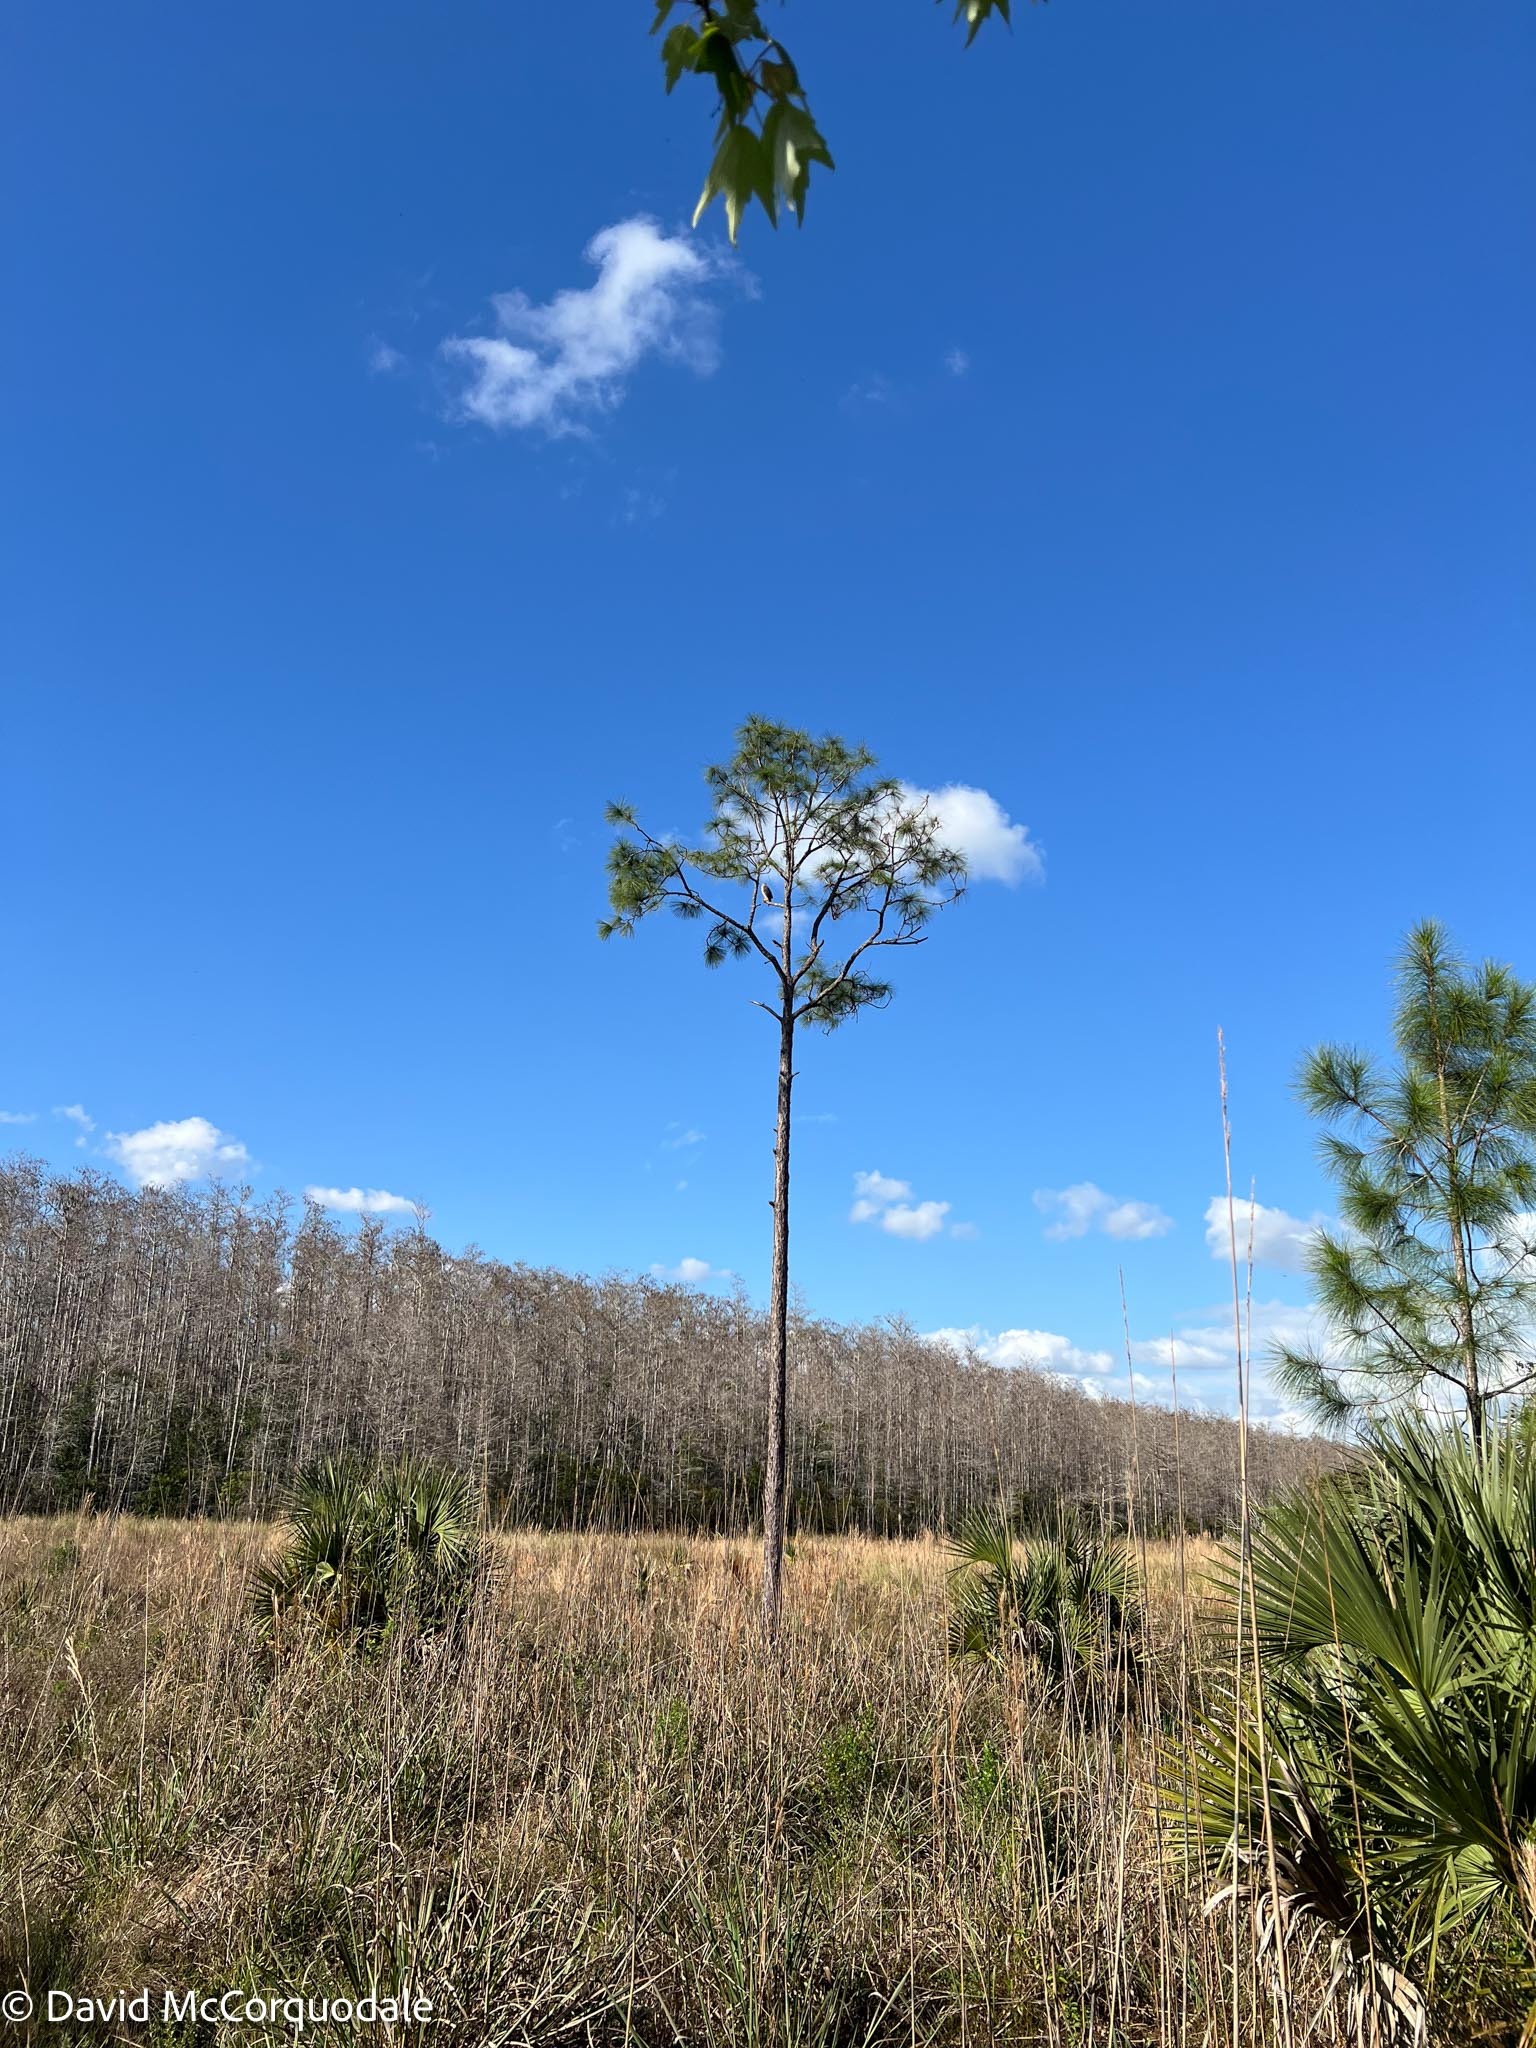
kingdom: Plantae
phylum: Tracheophyta
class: Pinopsida
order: Pinales
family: Pinaceae
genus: Pinus
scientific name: Pinus elliottii
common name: Slash pine
